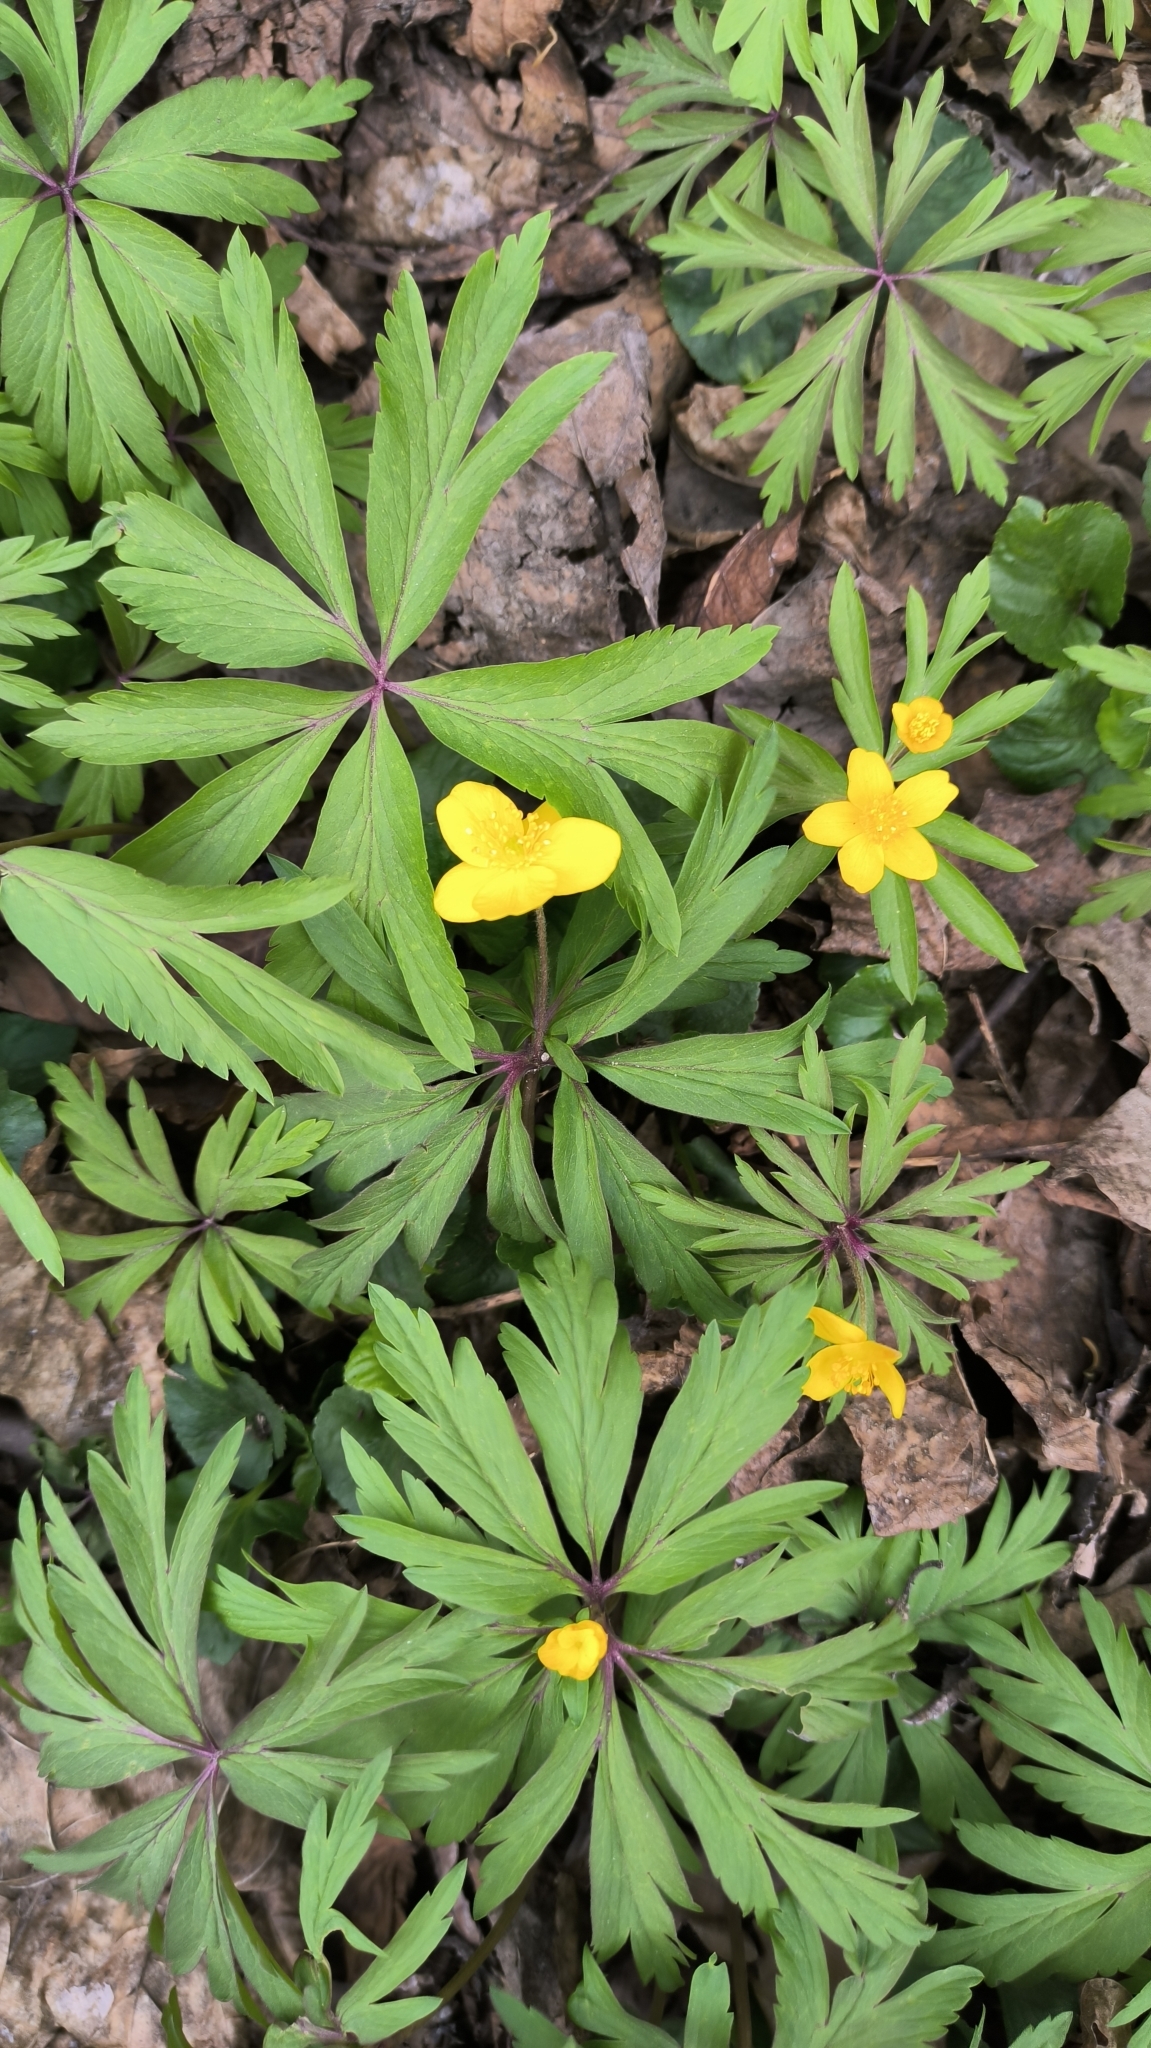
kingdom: Plantae
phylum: Tracheophyta
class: Magnoliopsida
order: Ranunculales
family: Ranunculaceae
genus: Anemone
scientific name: Anemone ranunculoides
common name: Yellow anemone
